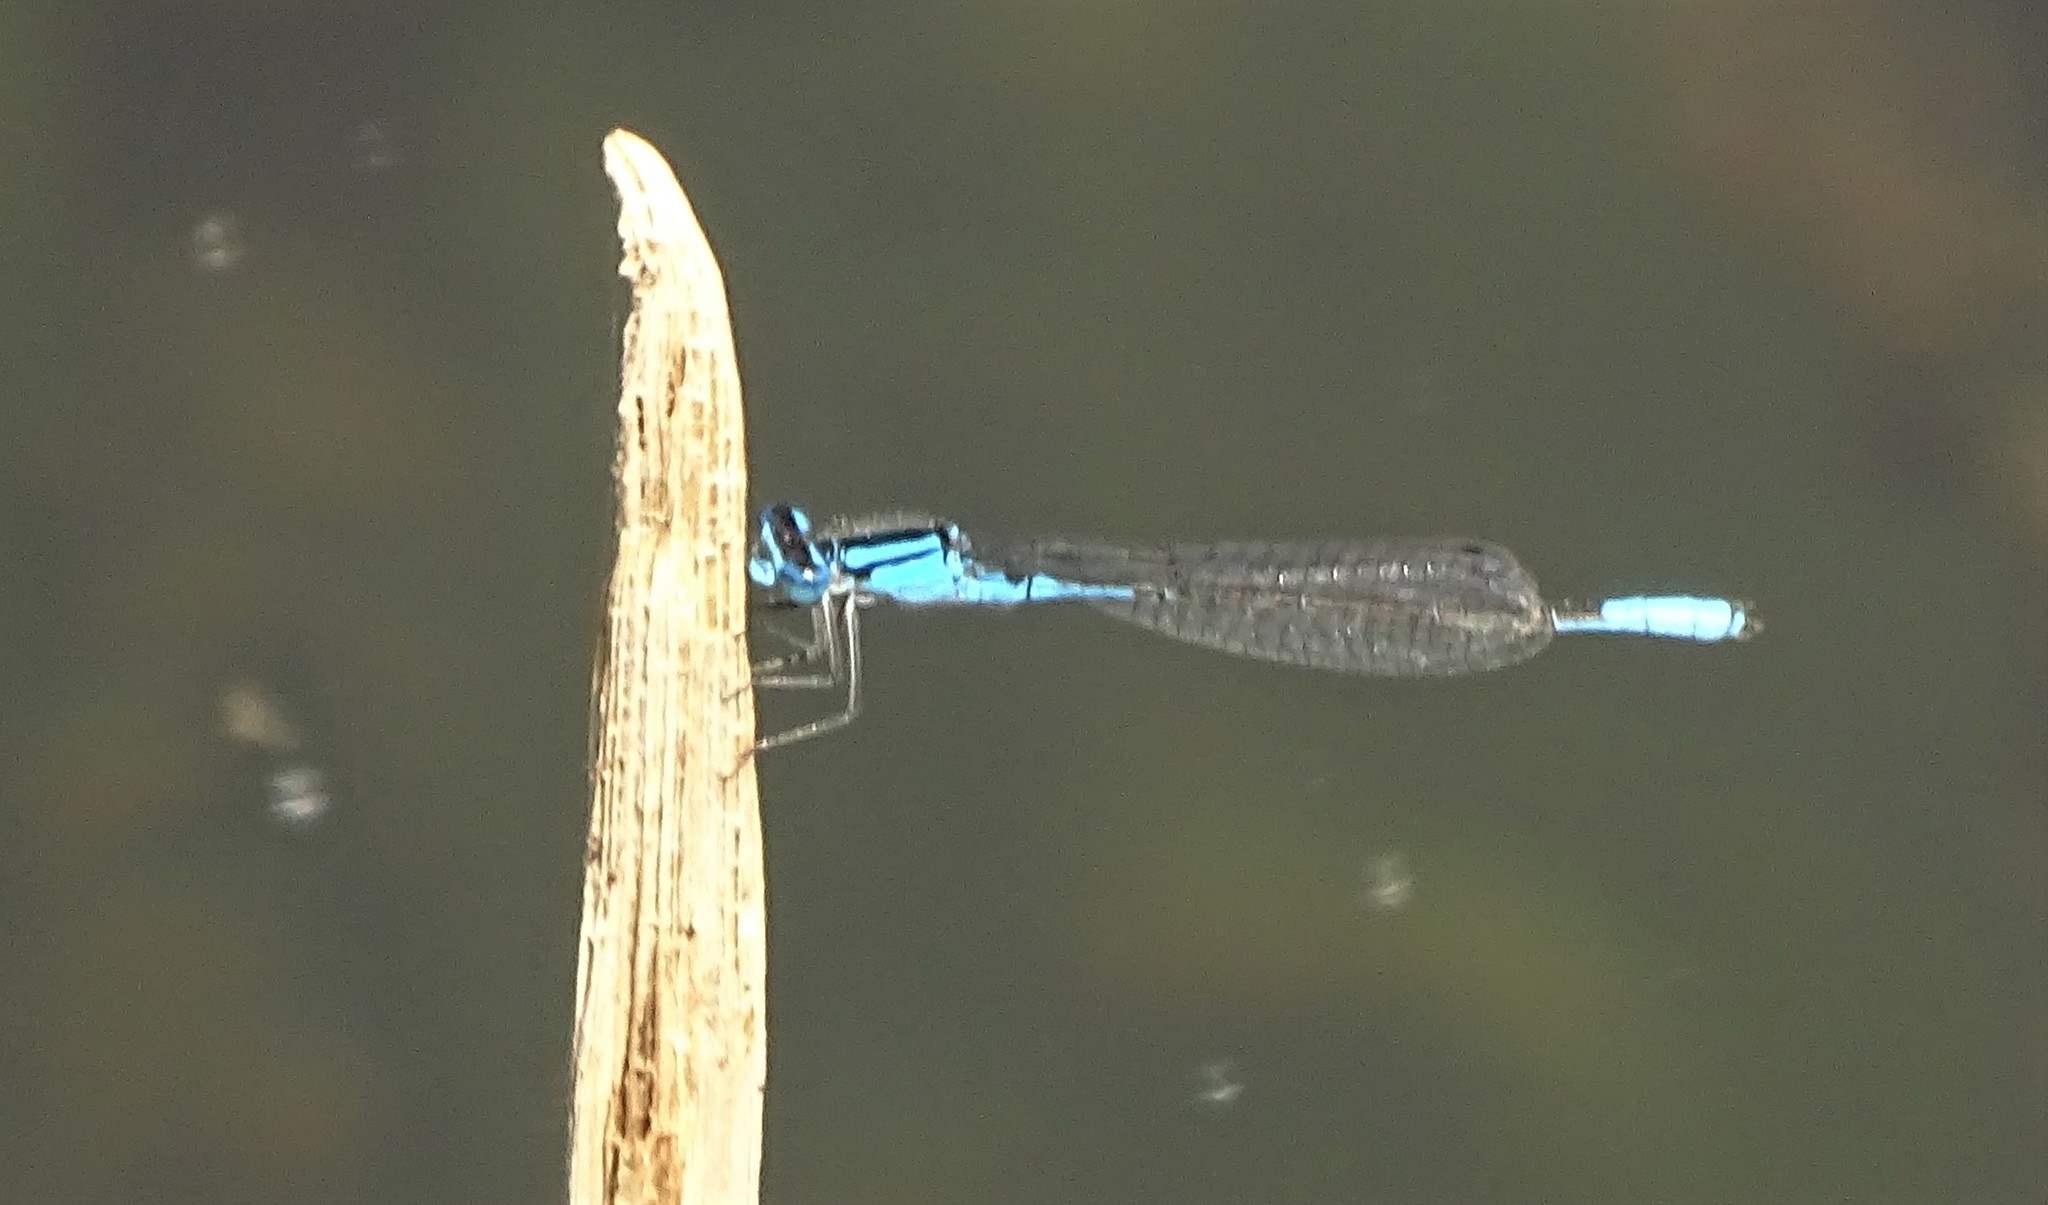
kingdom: Animalia
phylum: Arthropoda
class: Insecta
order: Odonata
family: Coenagrionidae
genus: Enallagma
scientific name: Enallagma aspersum
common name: Azure bluet
